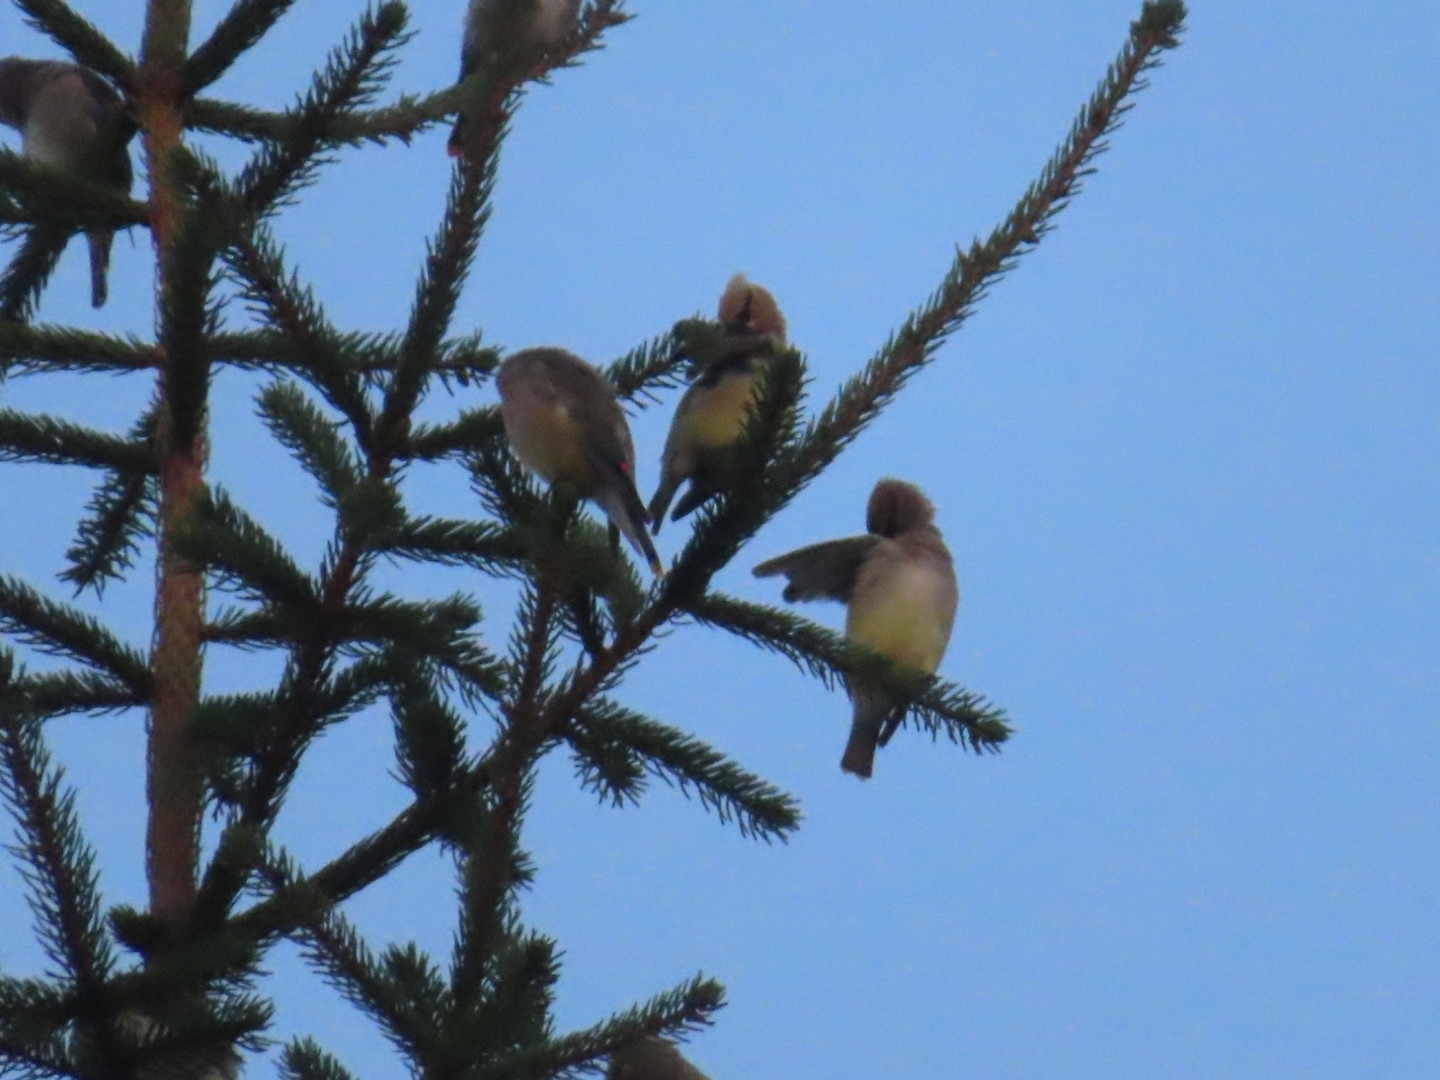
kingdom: Animalia
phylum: Chordata
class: Aves
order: Passeriformes
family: Bombycillidae
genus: Bombycilla
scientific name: Bombycilla cedrorum
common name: Cedar waxwing
